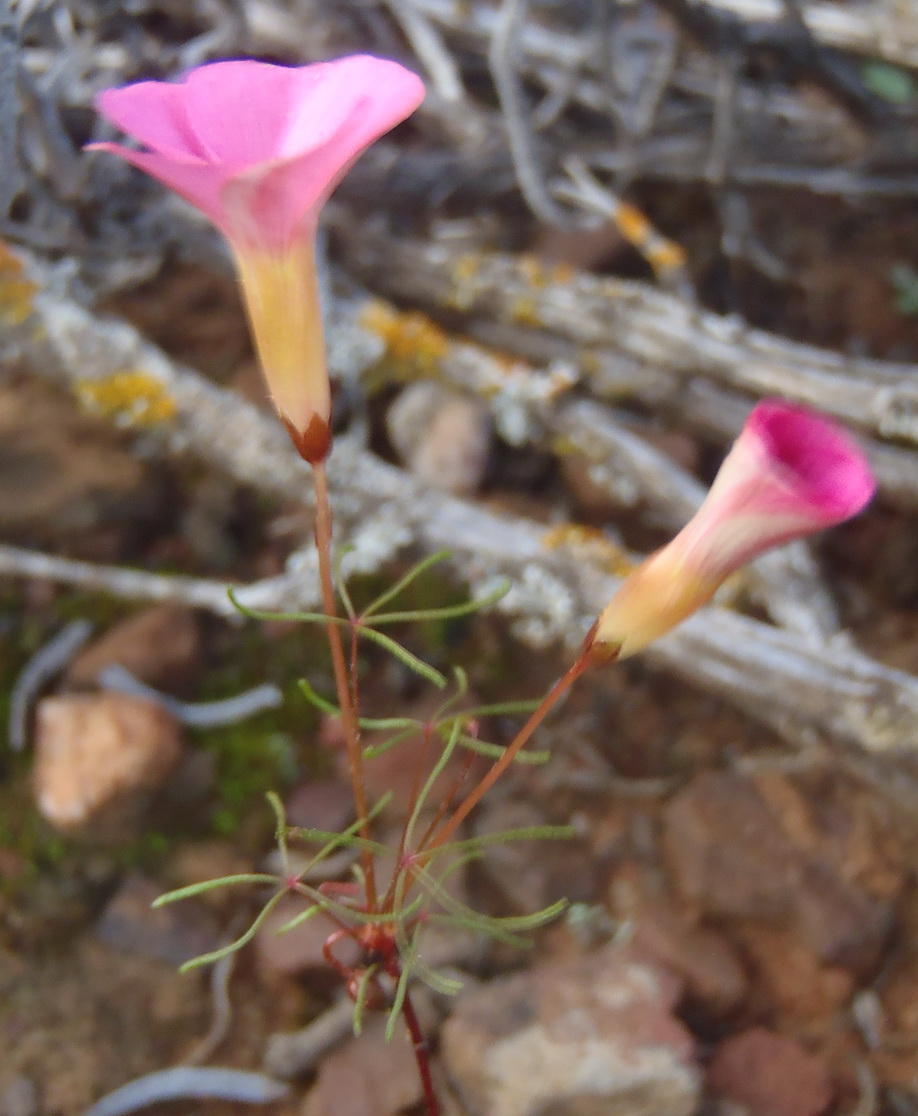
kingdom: Plantae
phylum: Tracheophyta
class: Magnoliopsida
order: Oxalidales
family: Oxalidaceae
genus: Oxalis
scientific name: Oxalis capillacea
